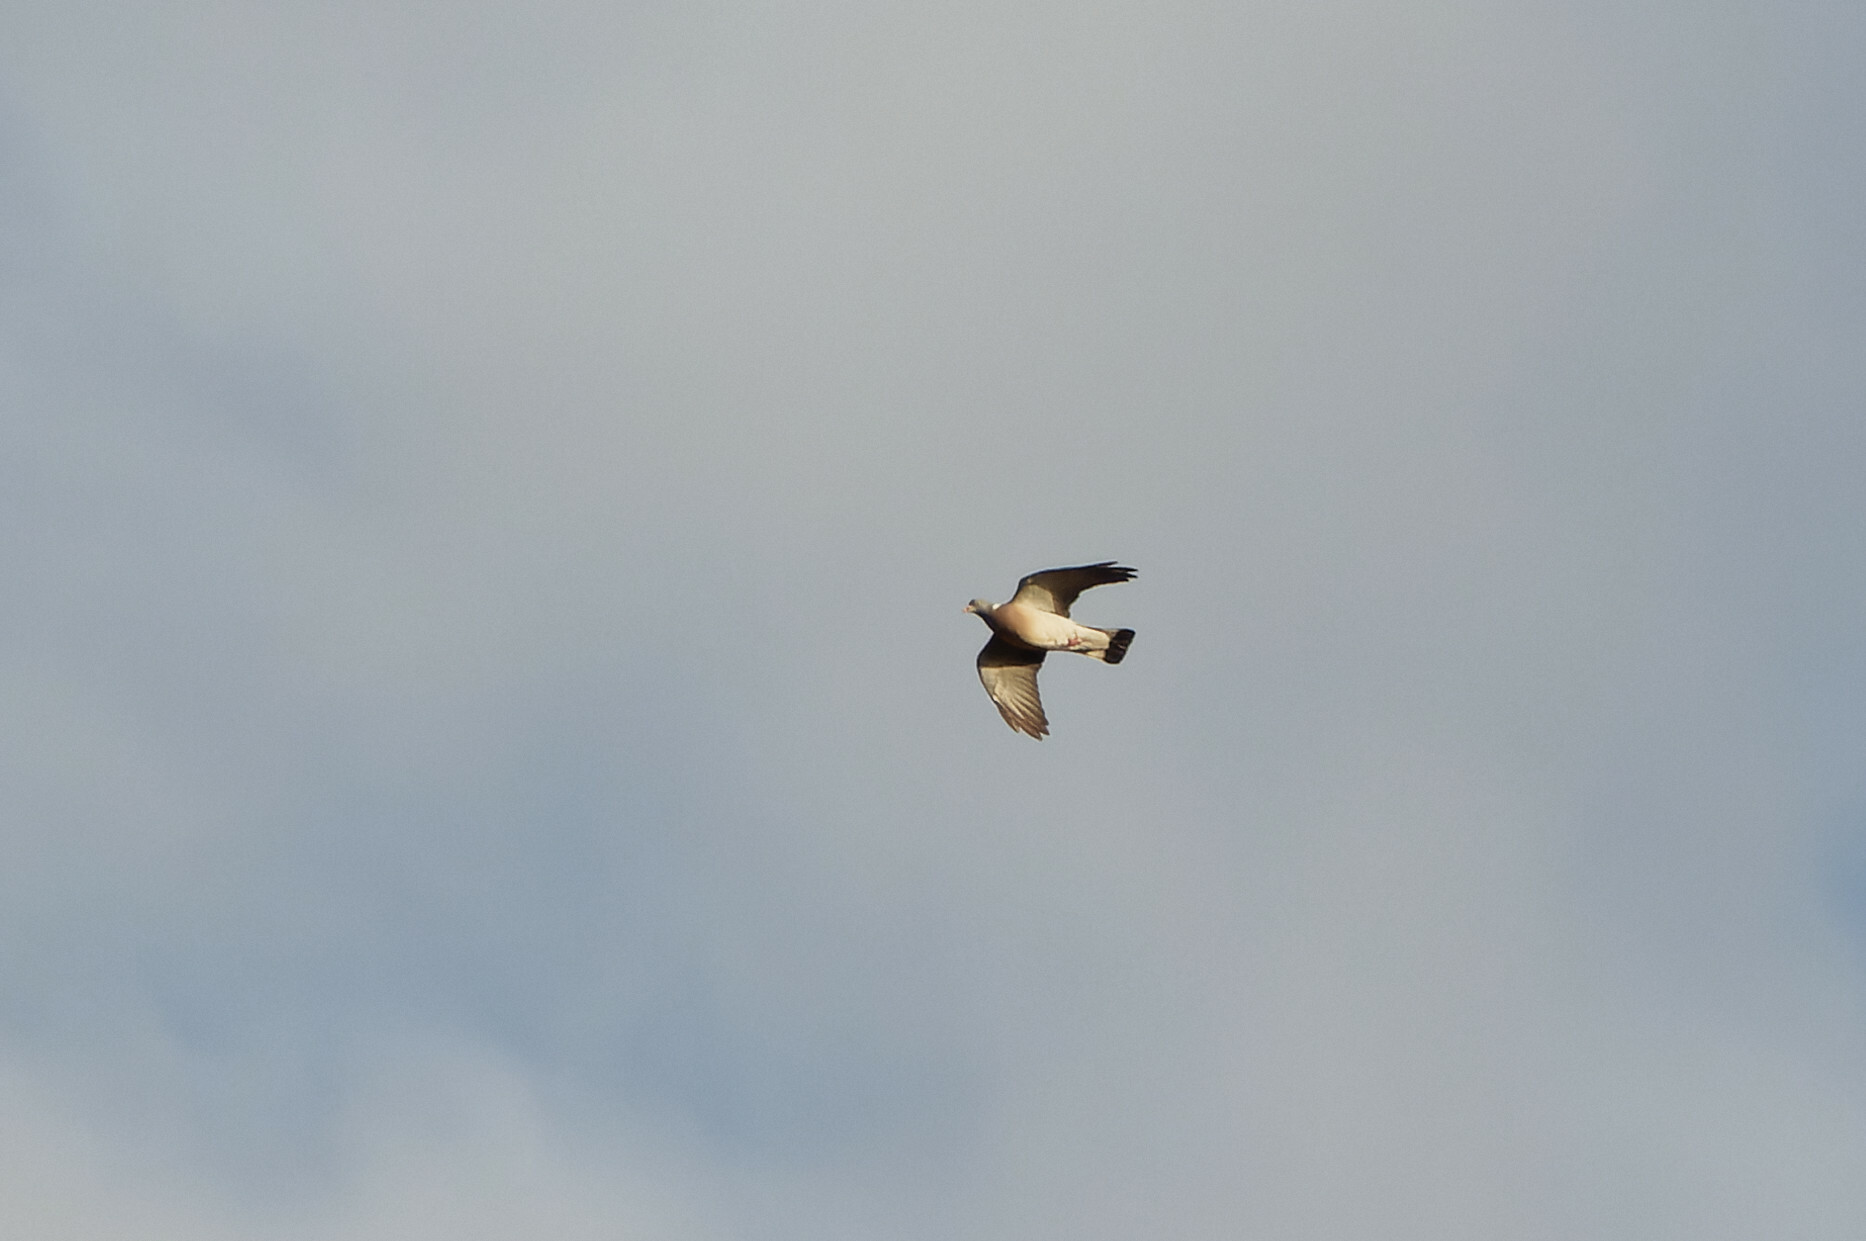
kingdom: Animalia
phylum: Chordata
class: Aves
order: Columbiformes
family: Columbidae
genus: Columba
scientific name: Columba palumbus
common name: Common wood pigeon
